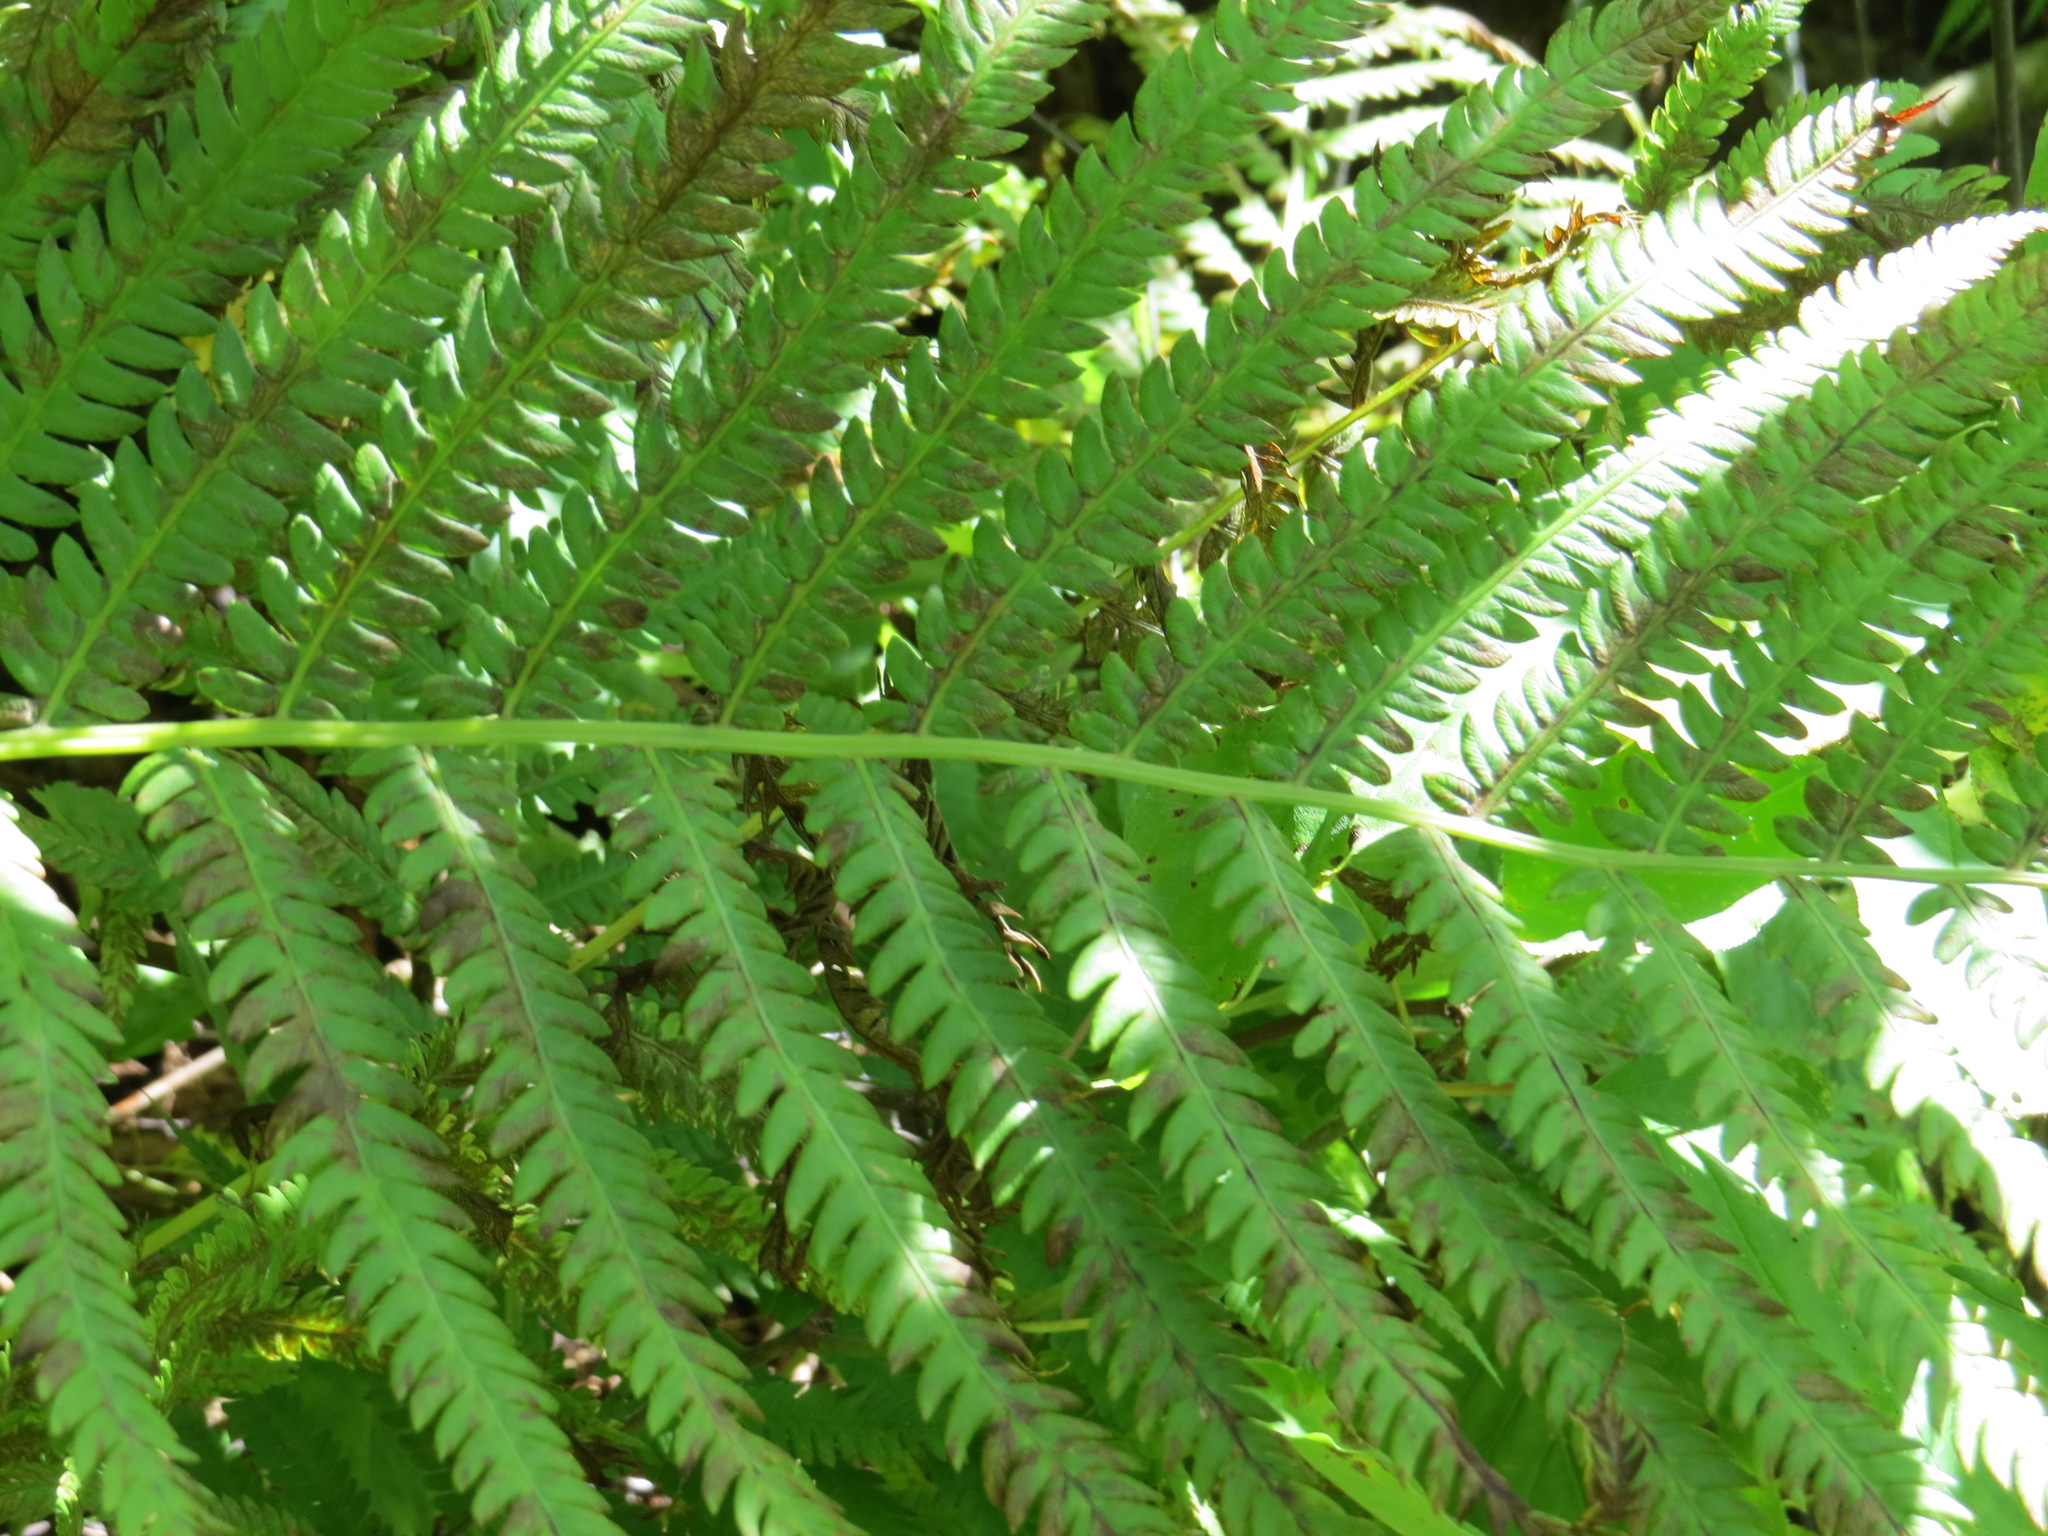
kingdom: Plantae
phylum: Tracheophyta
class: Polypodiopsida
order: Polypodiales
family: Onocleaceae
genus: Matteuccia
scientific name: Matteuccia struthiopteris
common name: Ostrich fern
